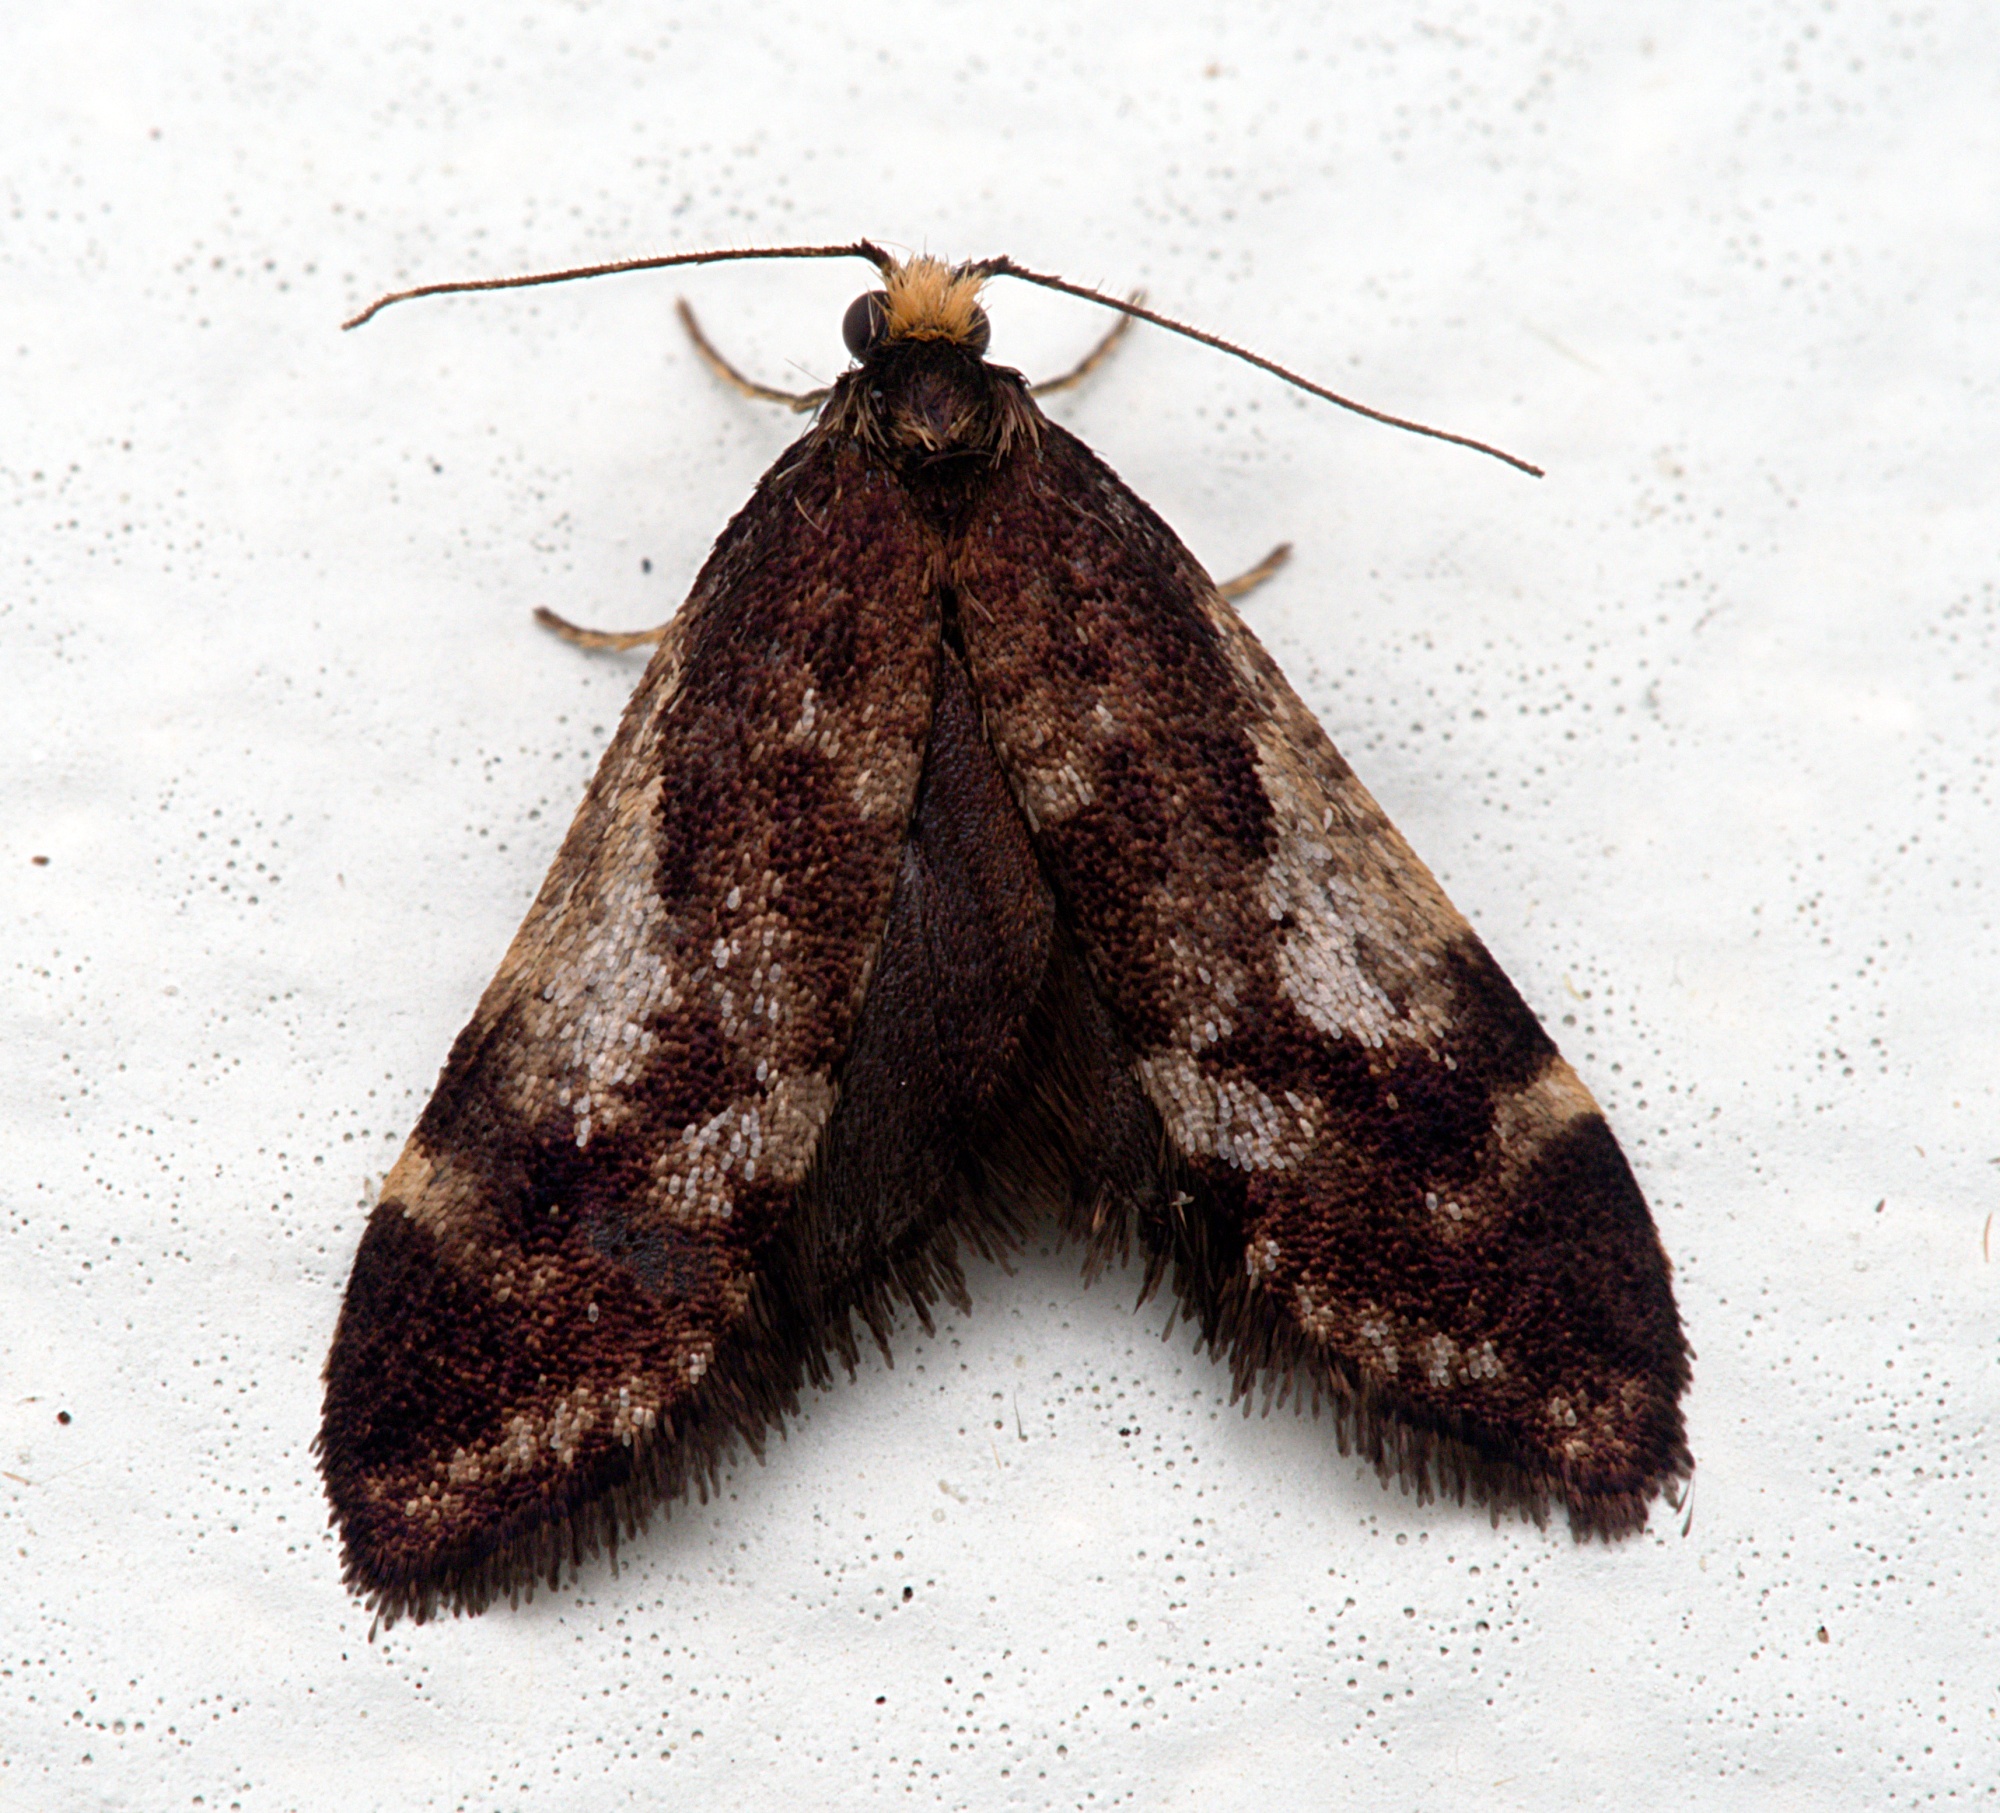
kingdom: Animalia
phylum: Arthropoda
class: Insecta
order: Lepidoptera
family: Psychidae
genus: Lepidoscia
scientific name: Lepidoscia lainodes
